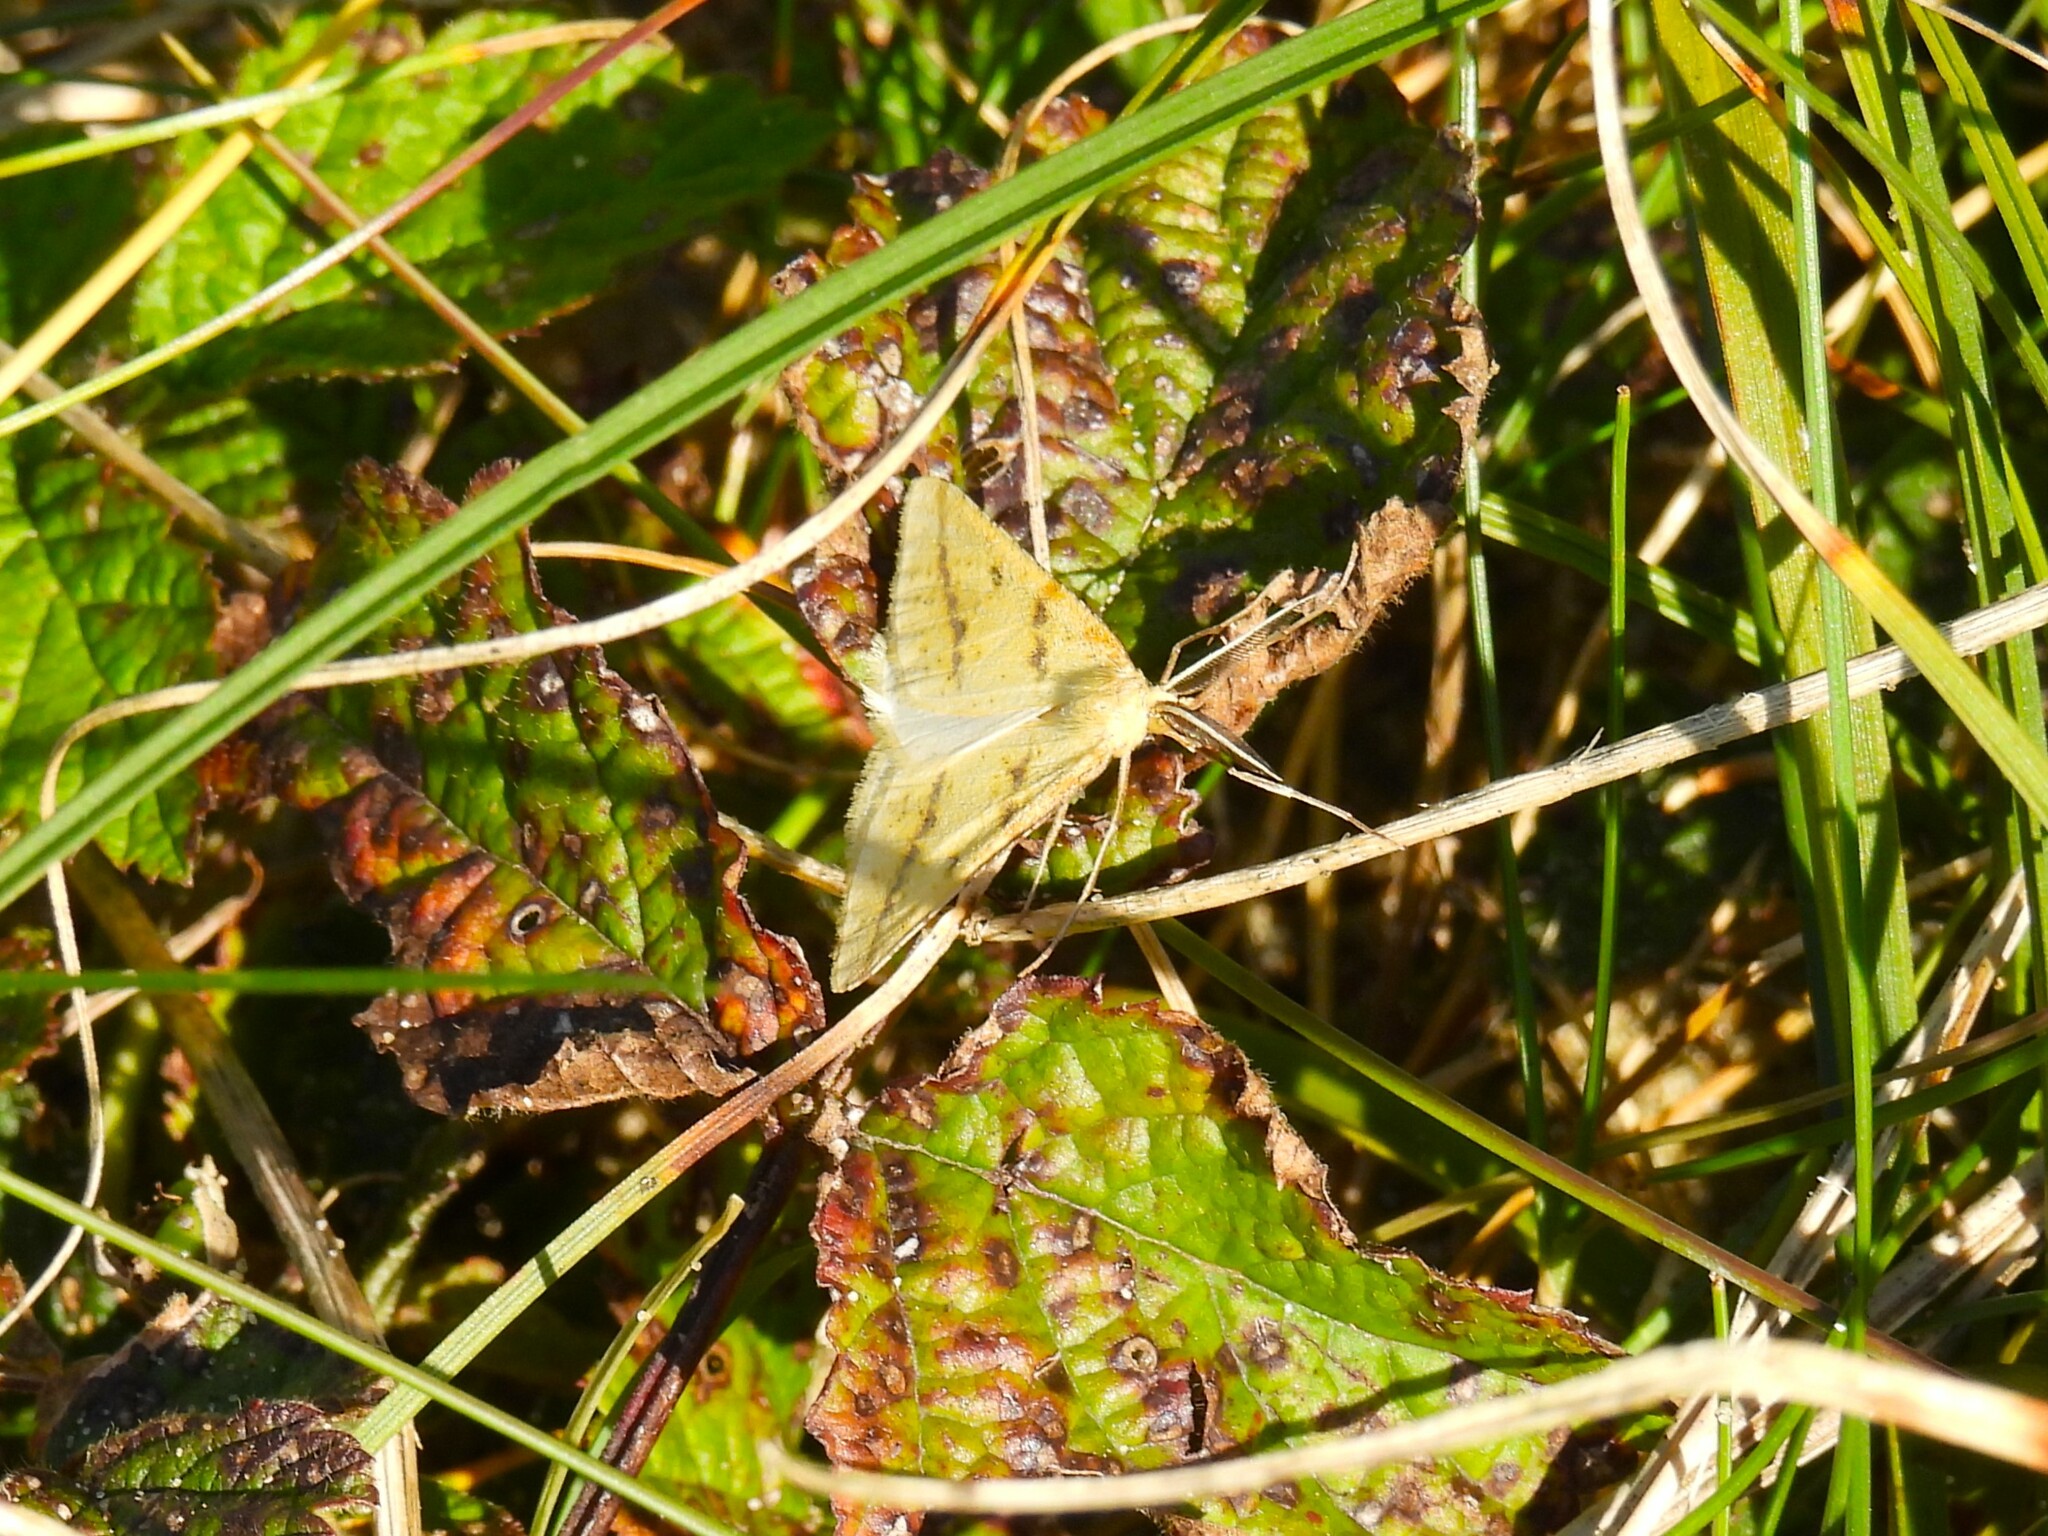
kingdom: Animalia
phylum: Arthropoda
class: Insecta
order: Lepidoptera
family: Geometridae
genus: Aspitates
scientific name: Aspitates ochrearia
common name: Yellow belle
